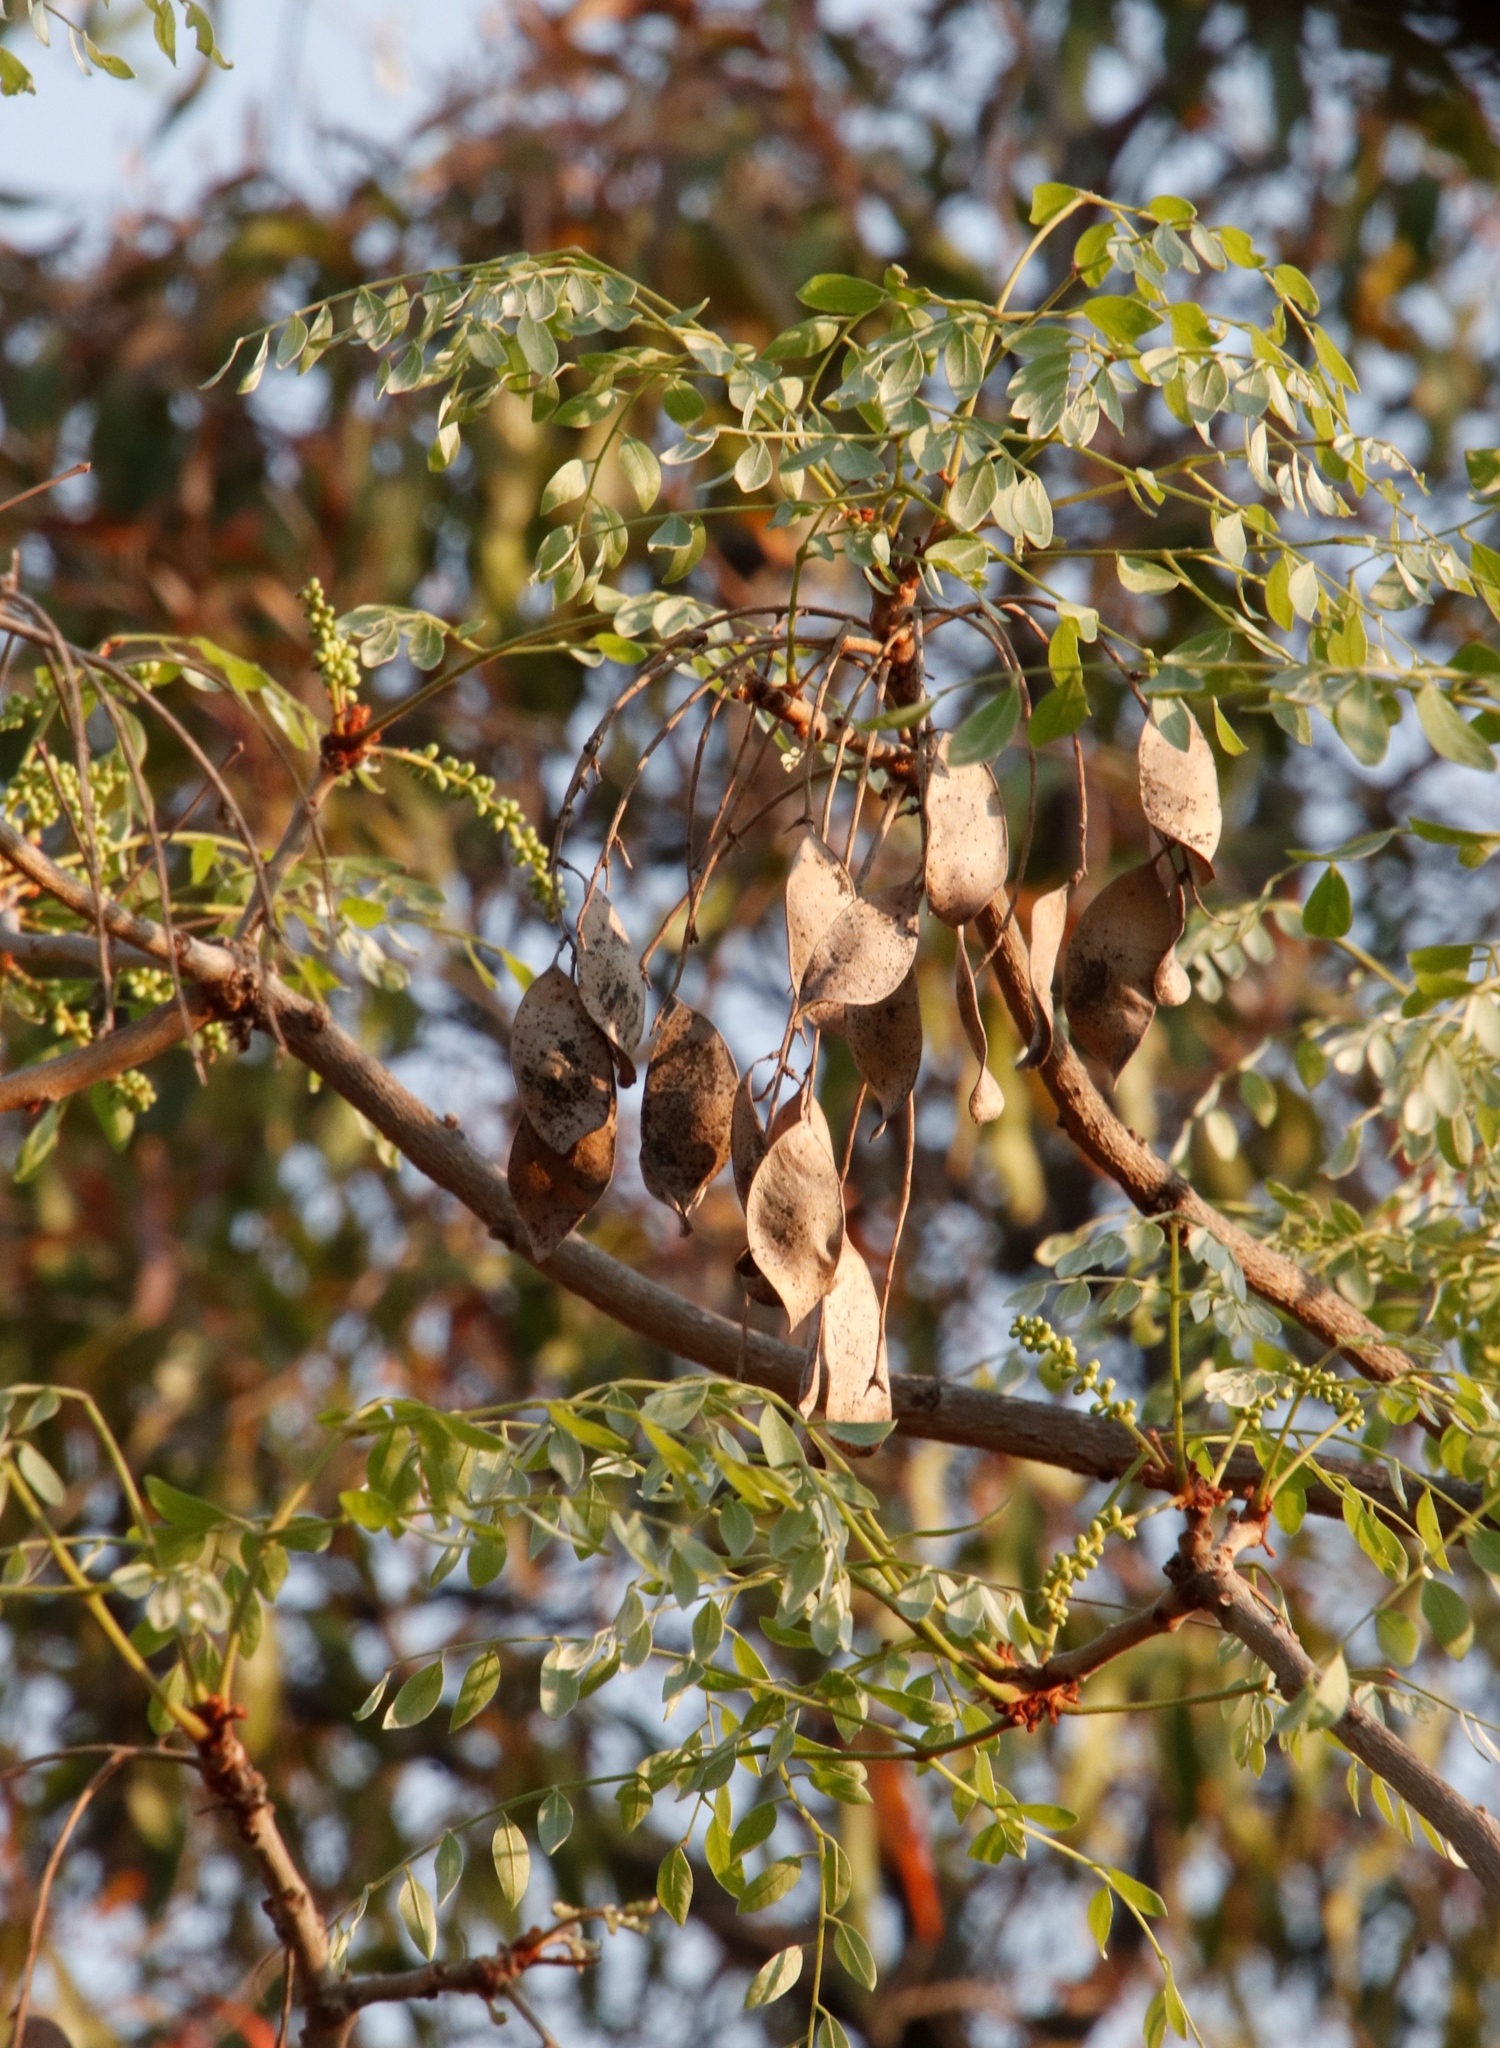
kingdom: Plantae
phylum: Tracheophyta
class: Magnoliopsida
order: Fabales
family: Fabaceae
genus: Burkea
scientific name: Burkea africana
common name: Mkalati tree
